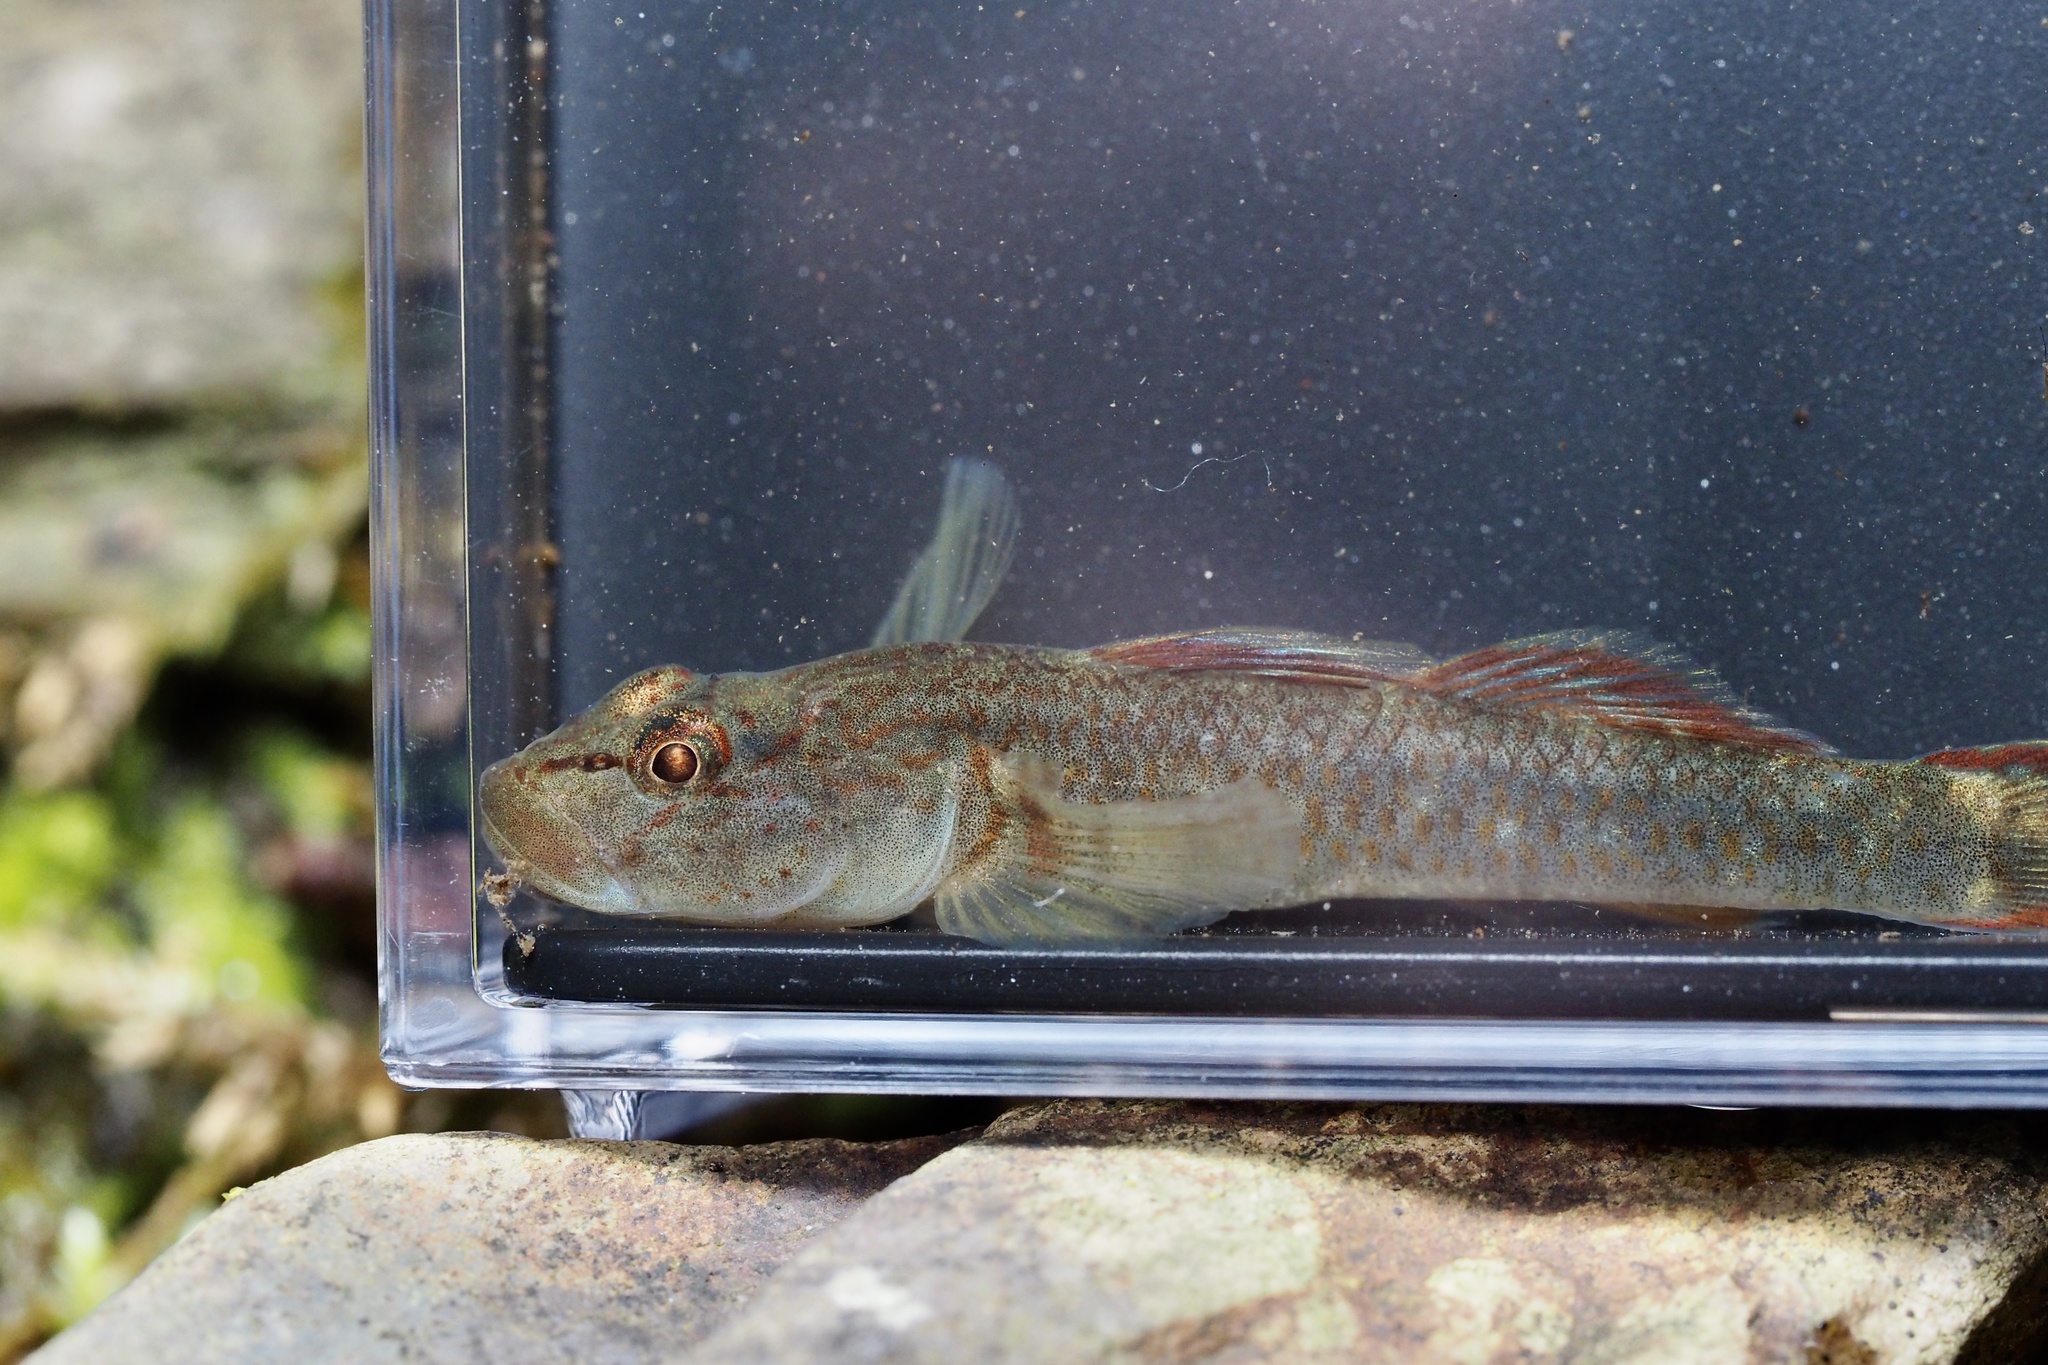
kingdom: Animalia
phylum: Chordata
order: Perciformes
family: Gobiidae
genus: Rhinogobius
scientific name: Rhinogobius flumineus
